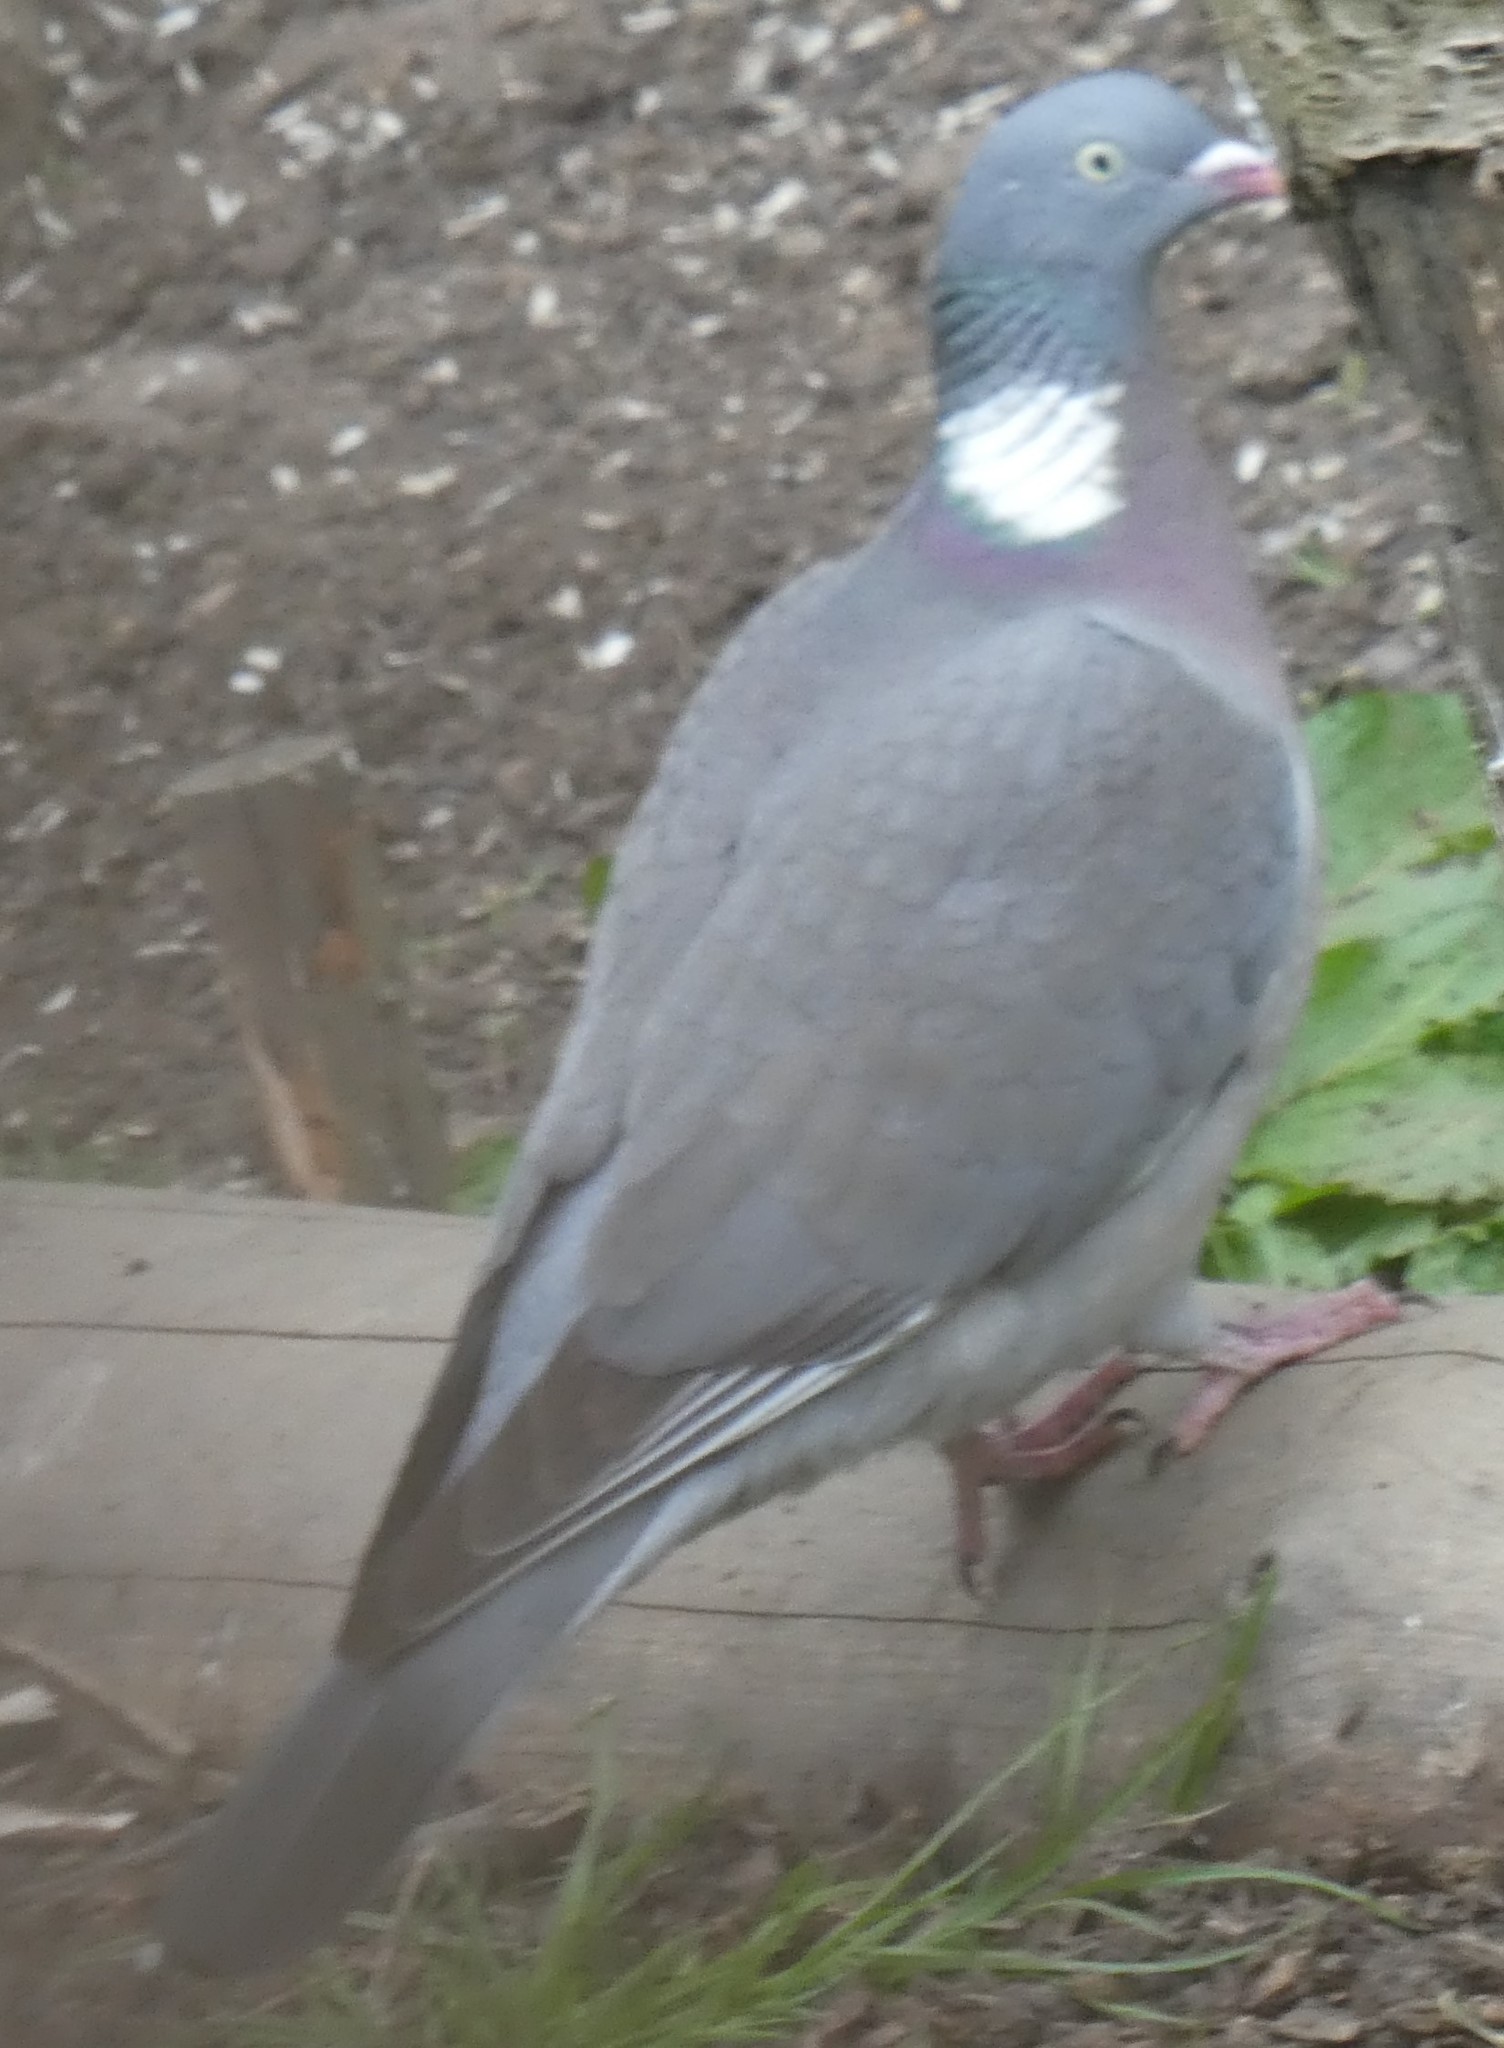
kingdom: Animalia
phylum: Chordata
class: Aves
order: Columbiformes
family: Columbidae
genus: Columba
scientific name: Columba palumbus
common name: Common wood pigeon
